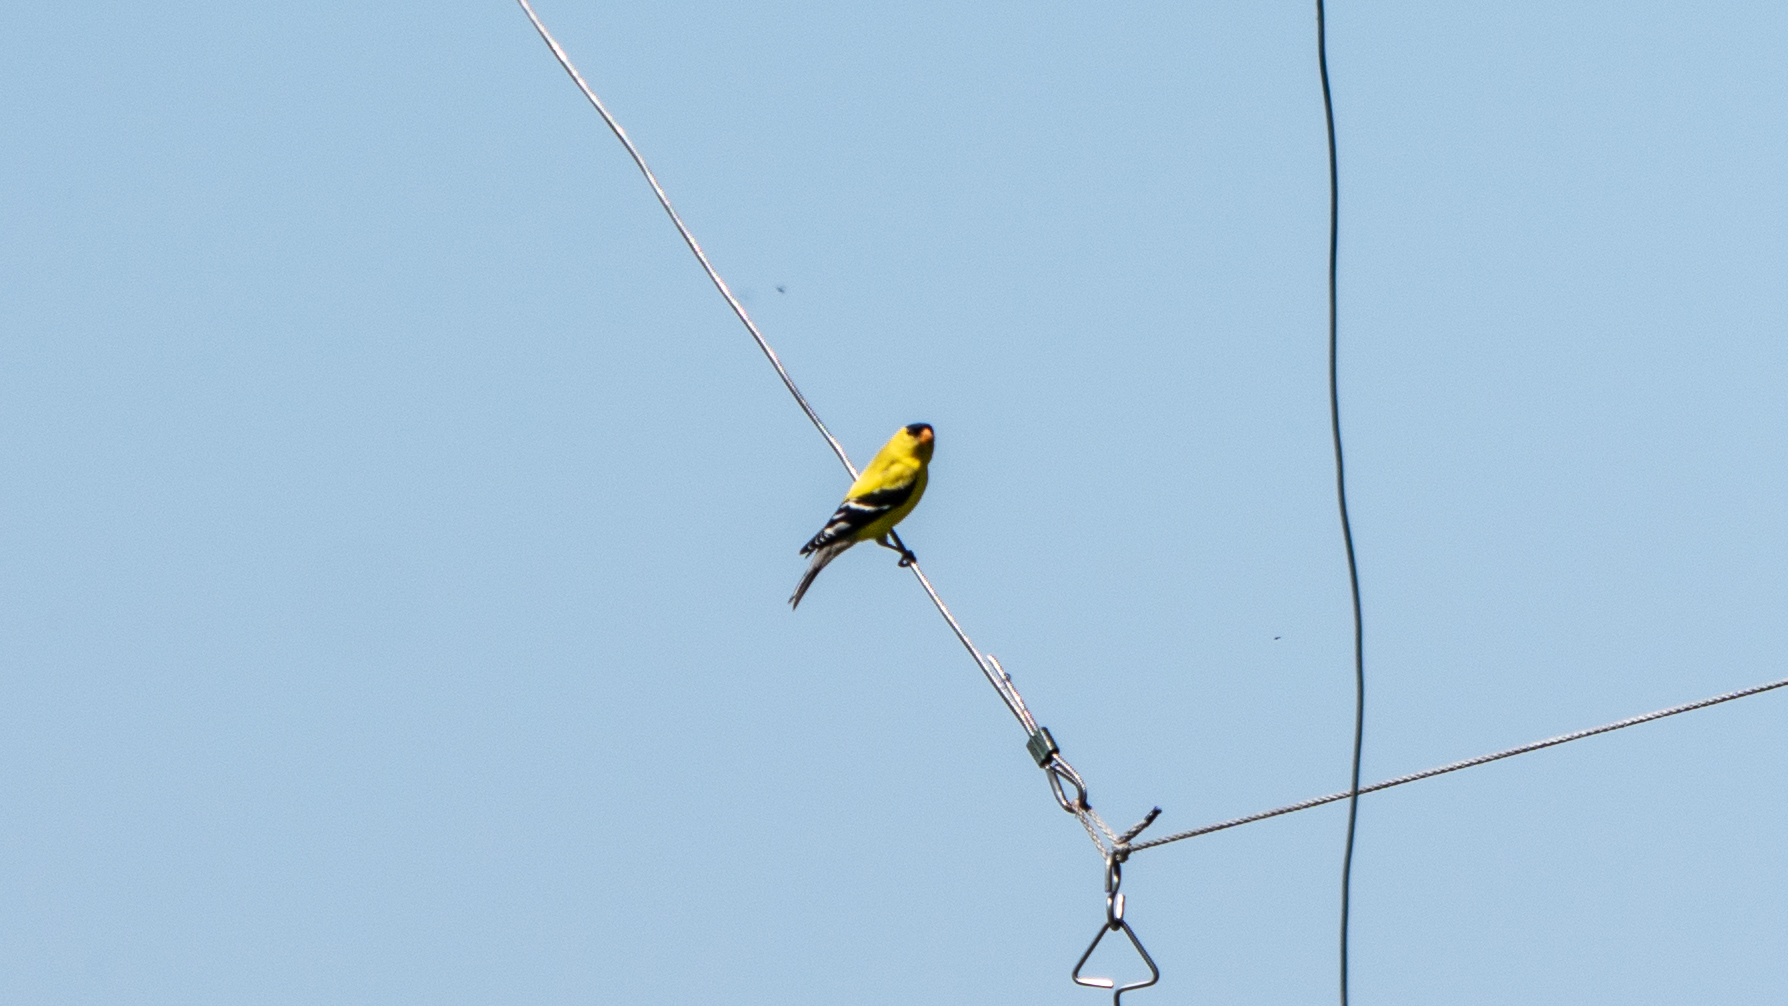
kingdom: Animalia
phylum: Chordata
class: Aves
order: Passeriformes
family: Fringillidae
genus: Spinus
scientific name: Spinus tristis
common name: American goldfinch
